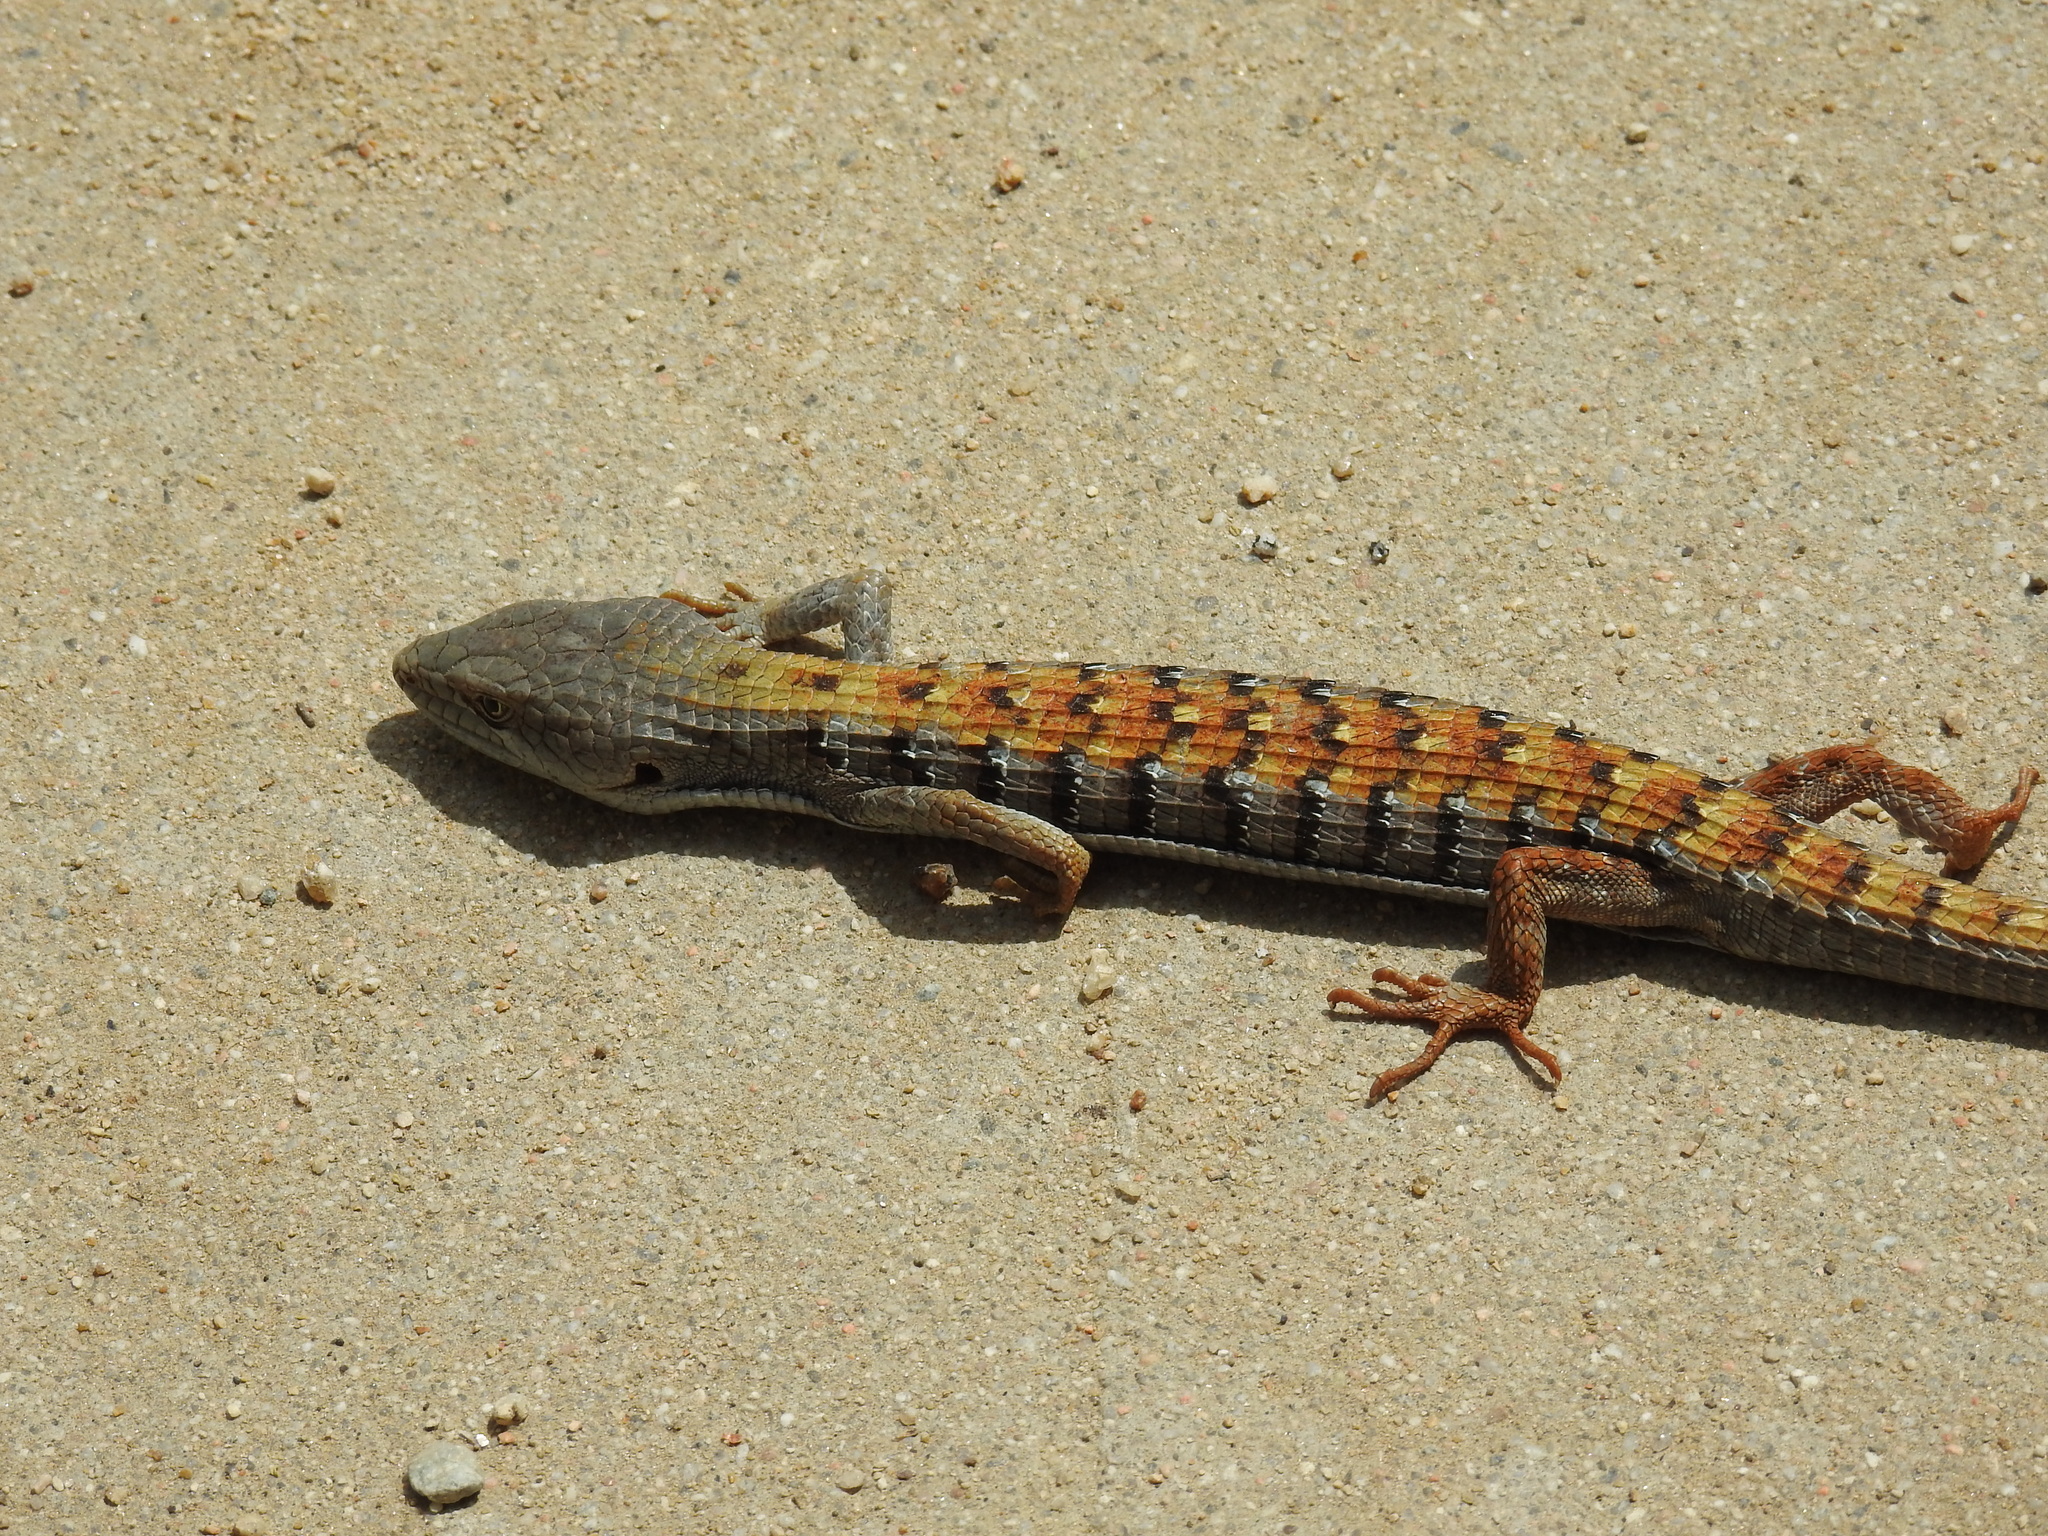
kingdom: Animalia
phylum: Chordata
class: Squamata
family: Anguidae
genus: Elgaria
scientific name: Elgaria multicarinata
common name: Southern alligator lizard
